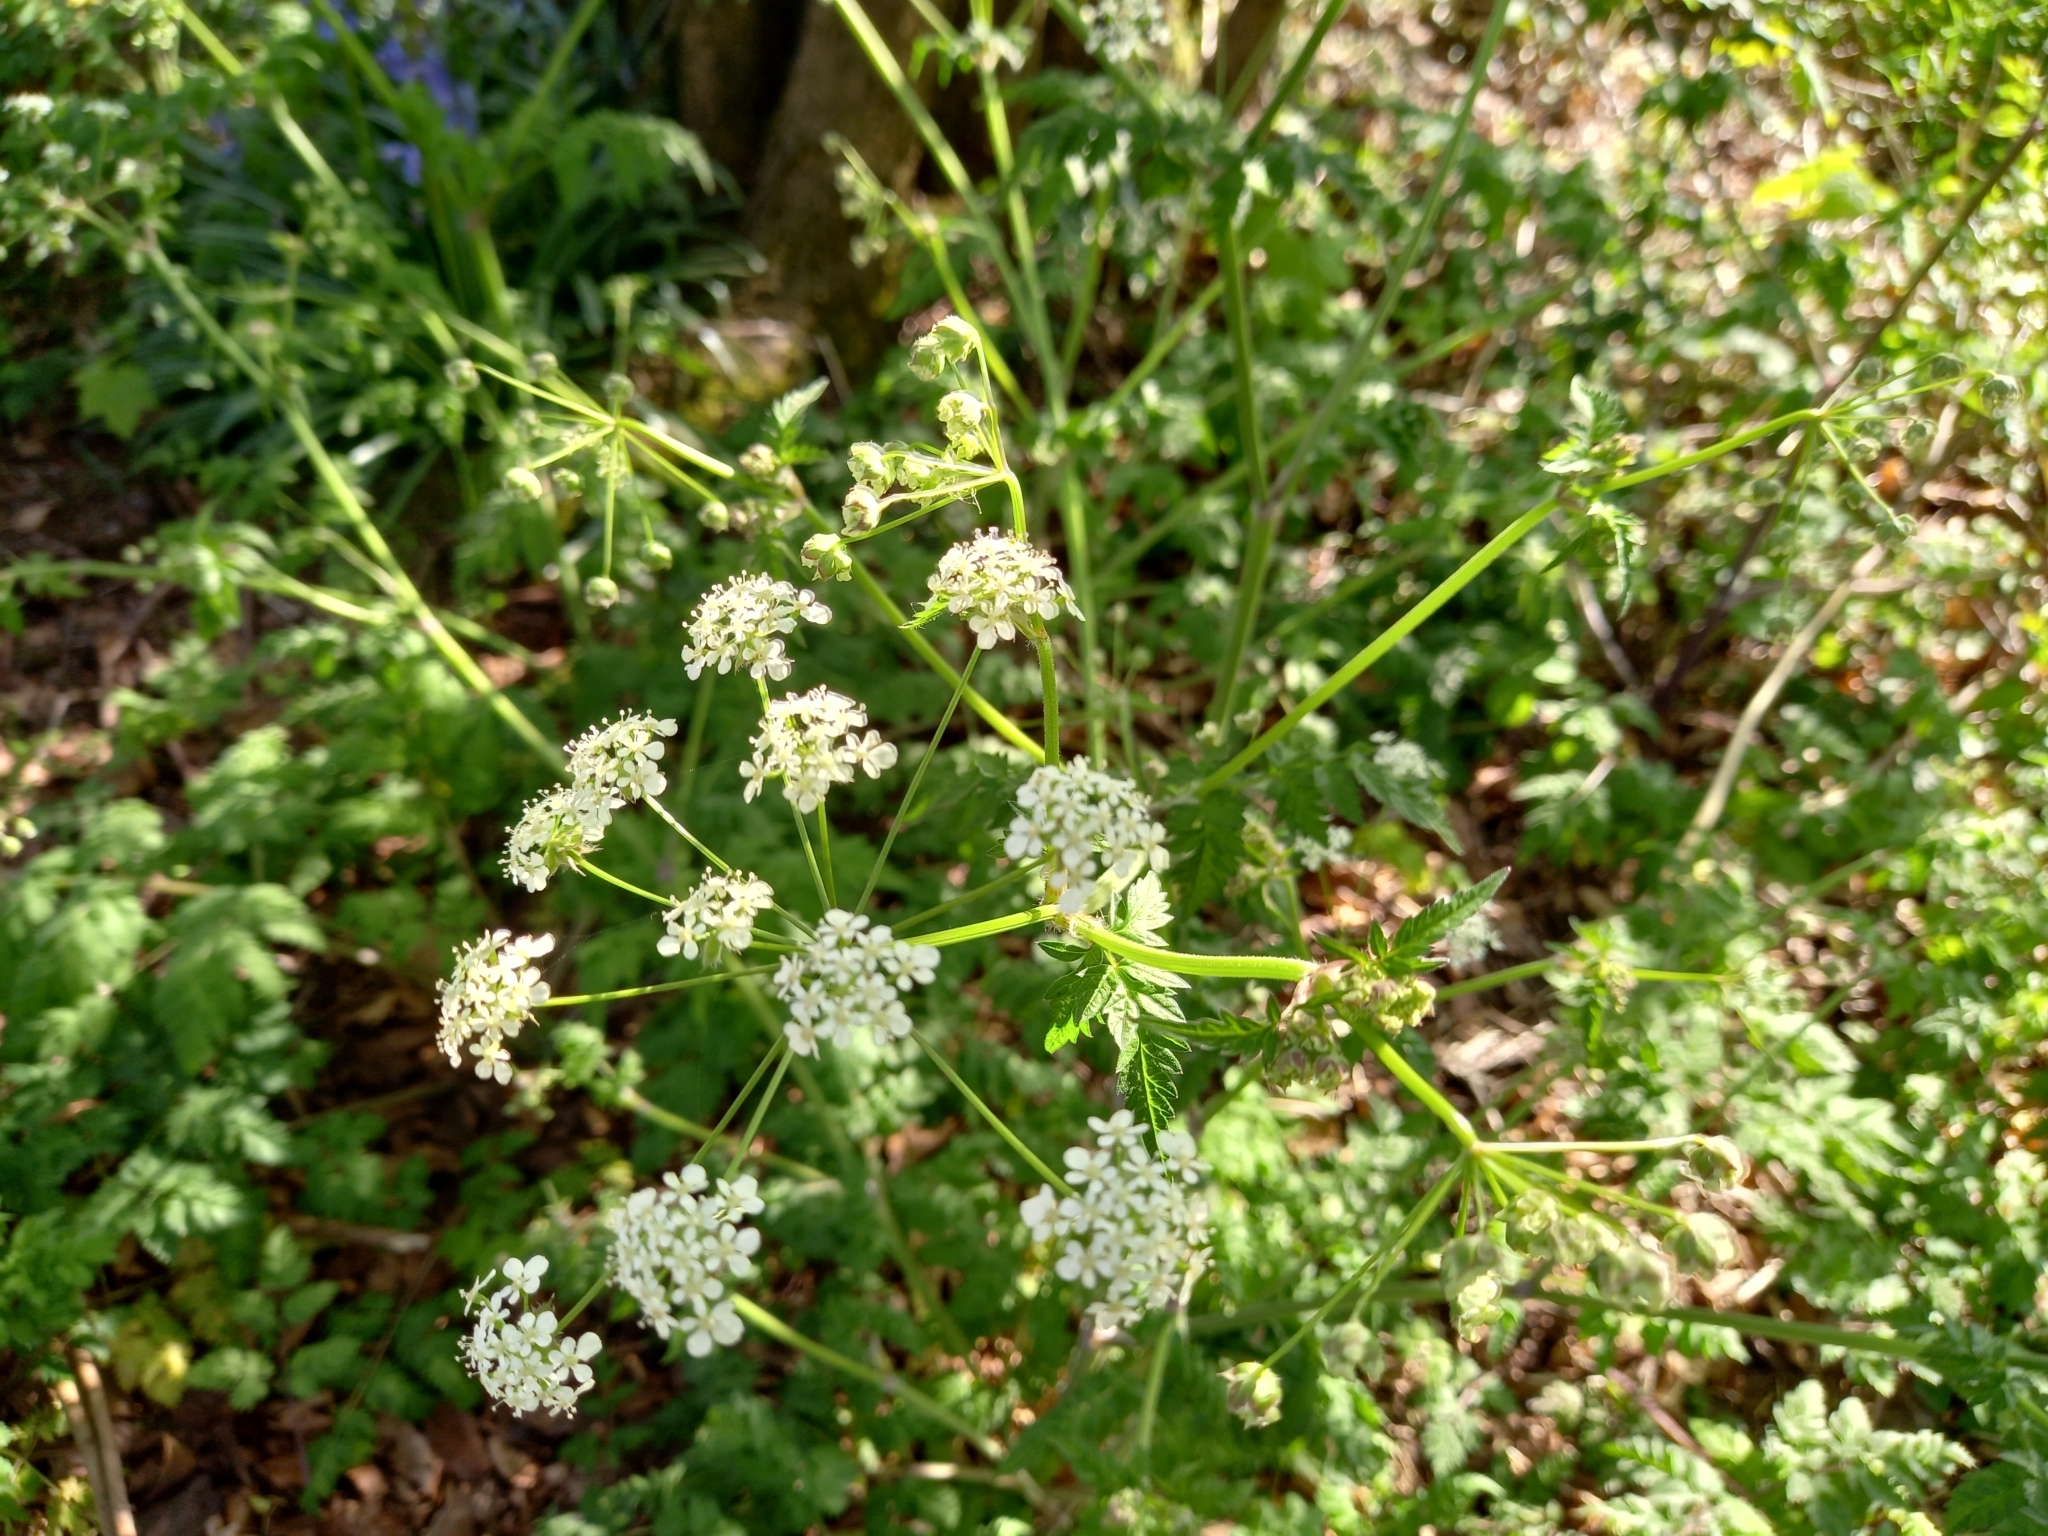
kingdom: Plantae
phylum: Tracheophyta
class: Magnoliopsida
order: Apiales
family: Apiaceae
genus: Anthriscus
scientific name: Anthriscus sylvestris
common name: Cow parsley
